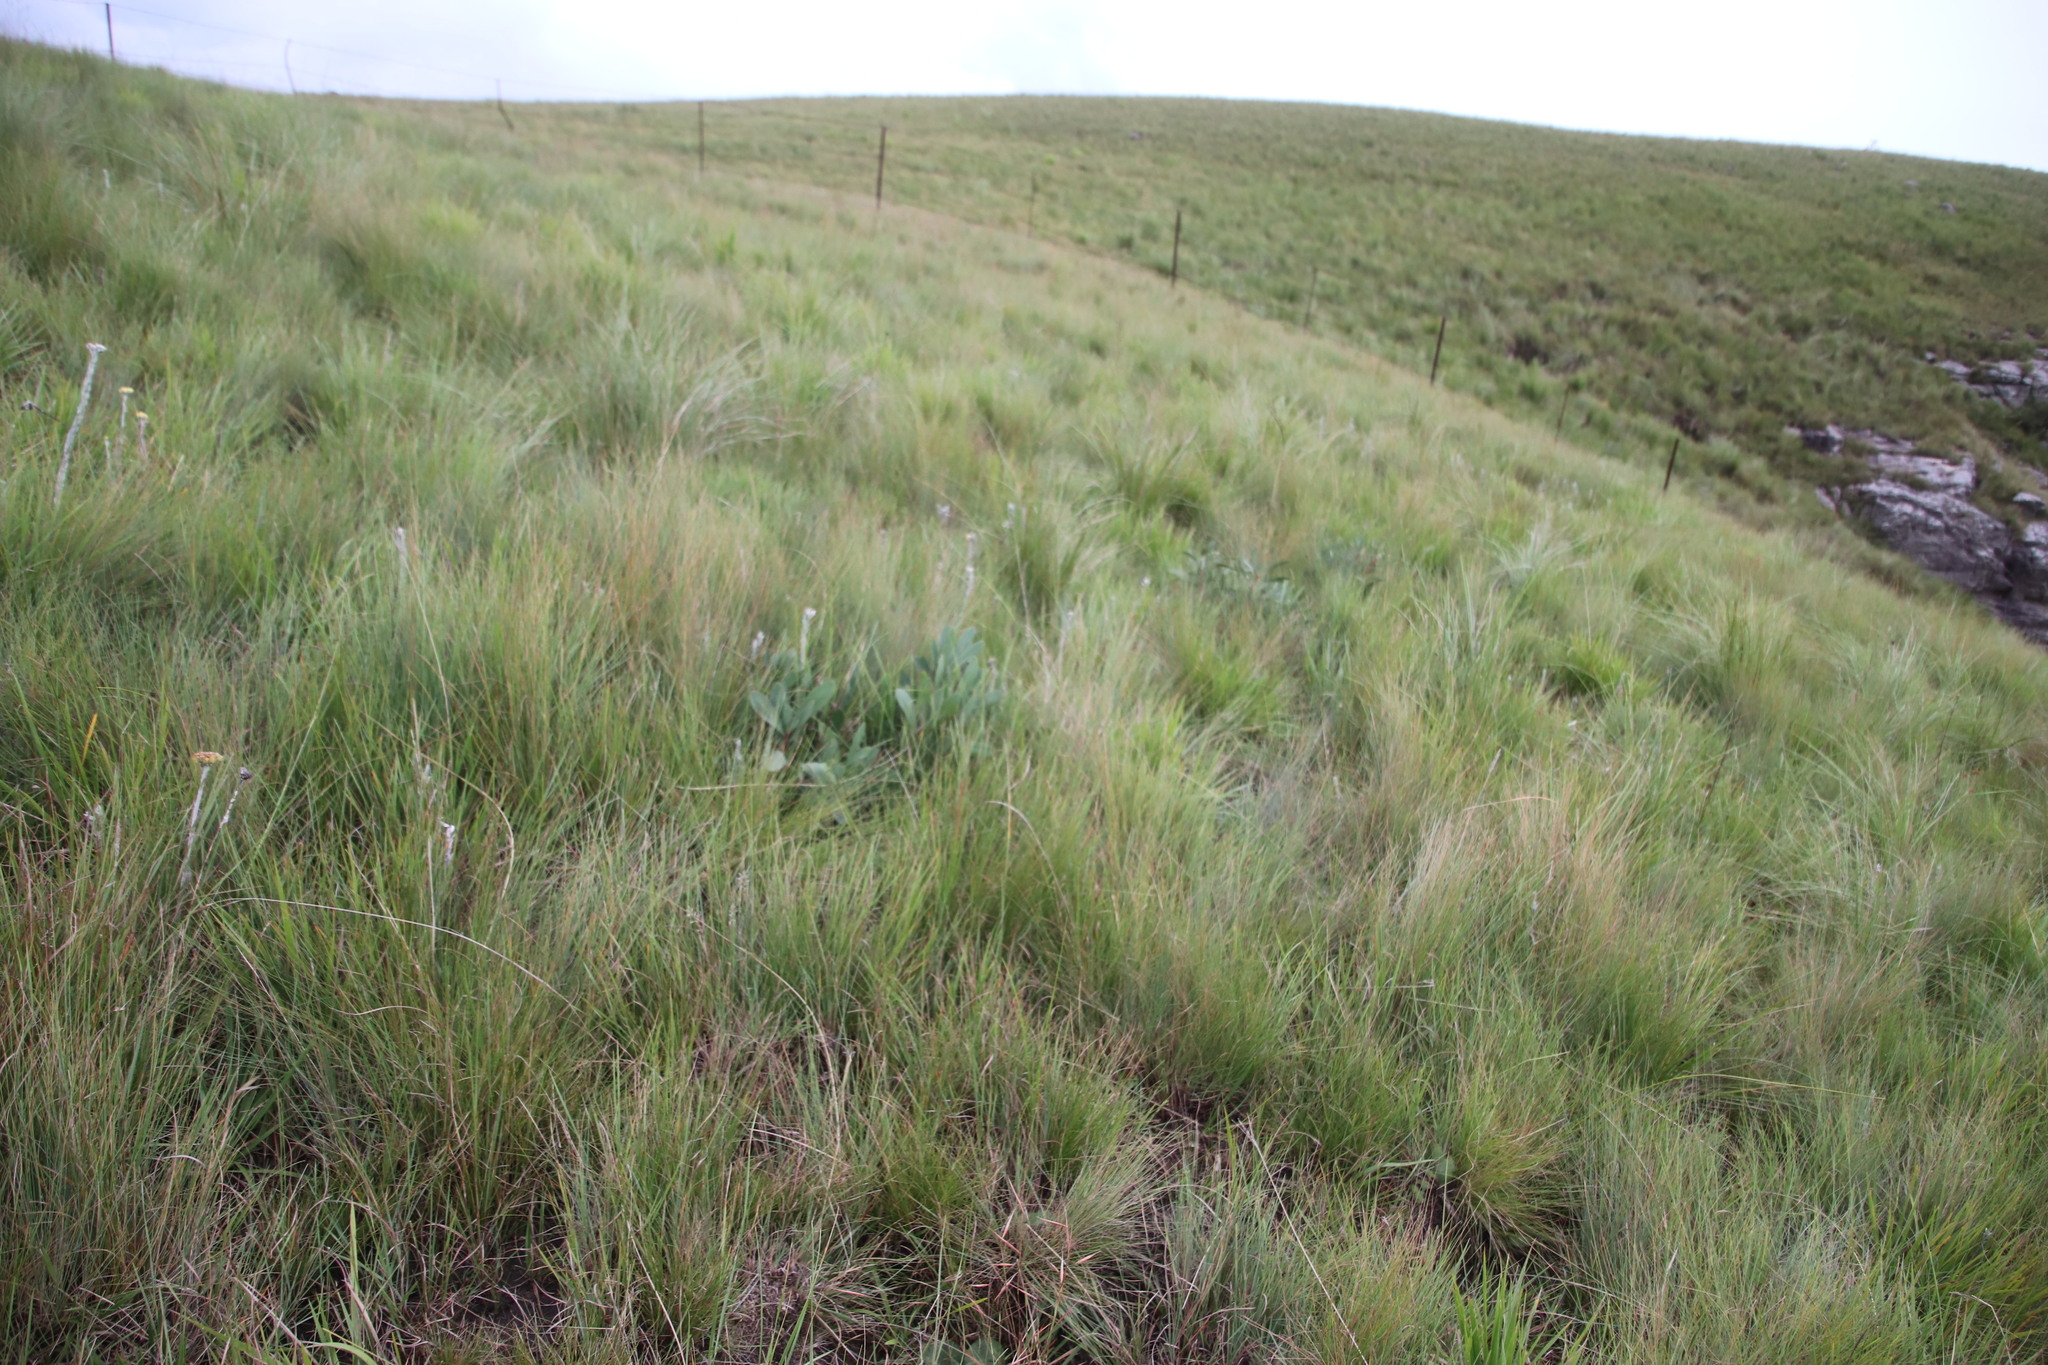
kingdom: Plantae
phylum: Tracheophyta
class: Magnoliopsida
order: Proteales
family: Proteaceae
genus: Protea
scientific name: Protea simplex
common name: Dwarf grassveld sugarbush
